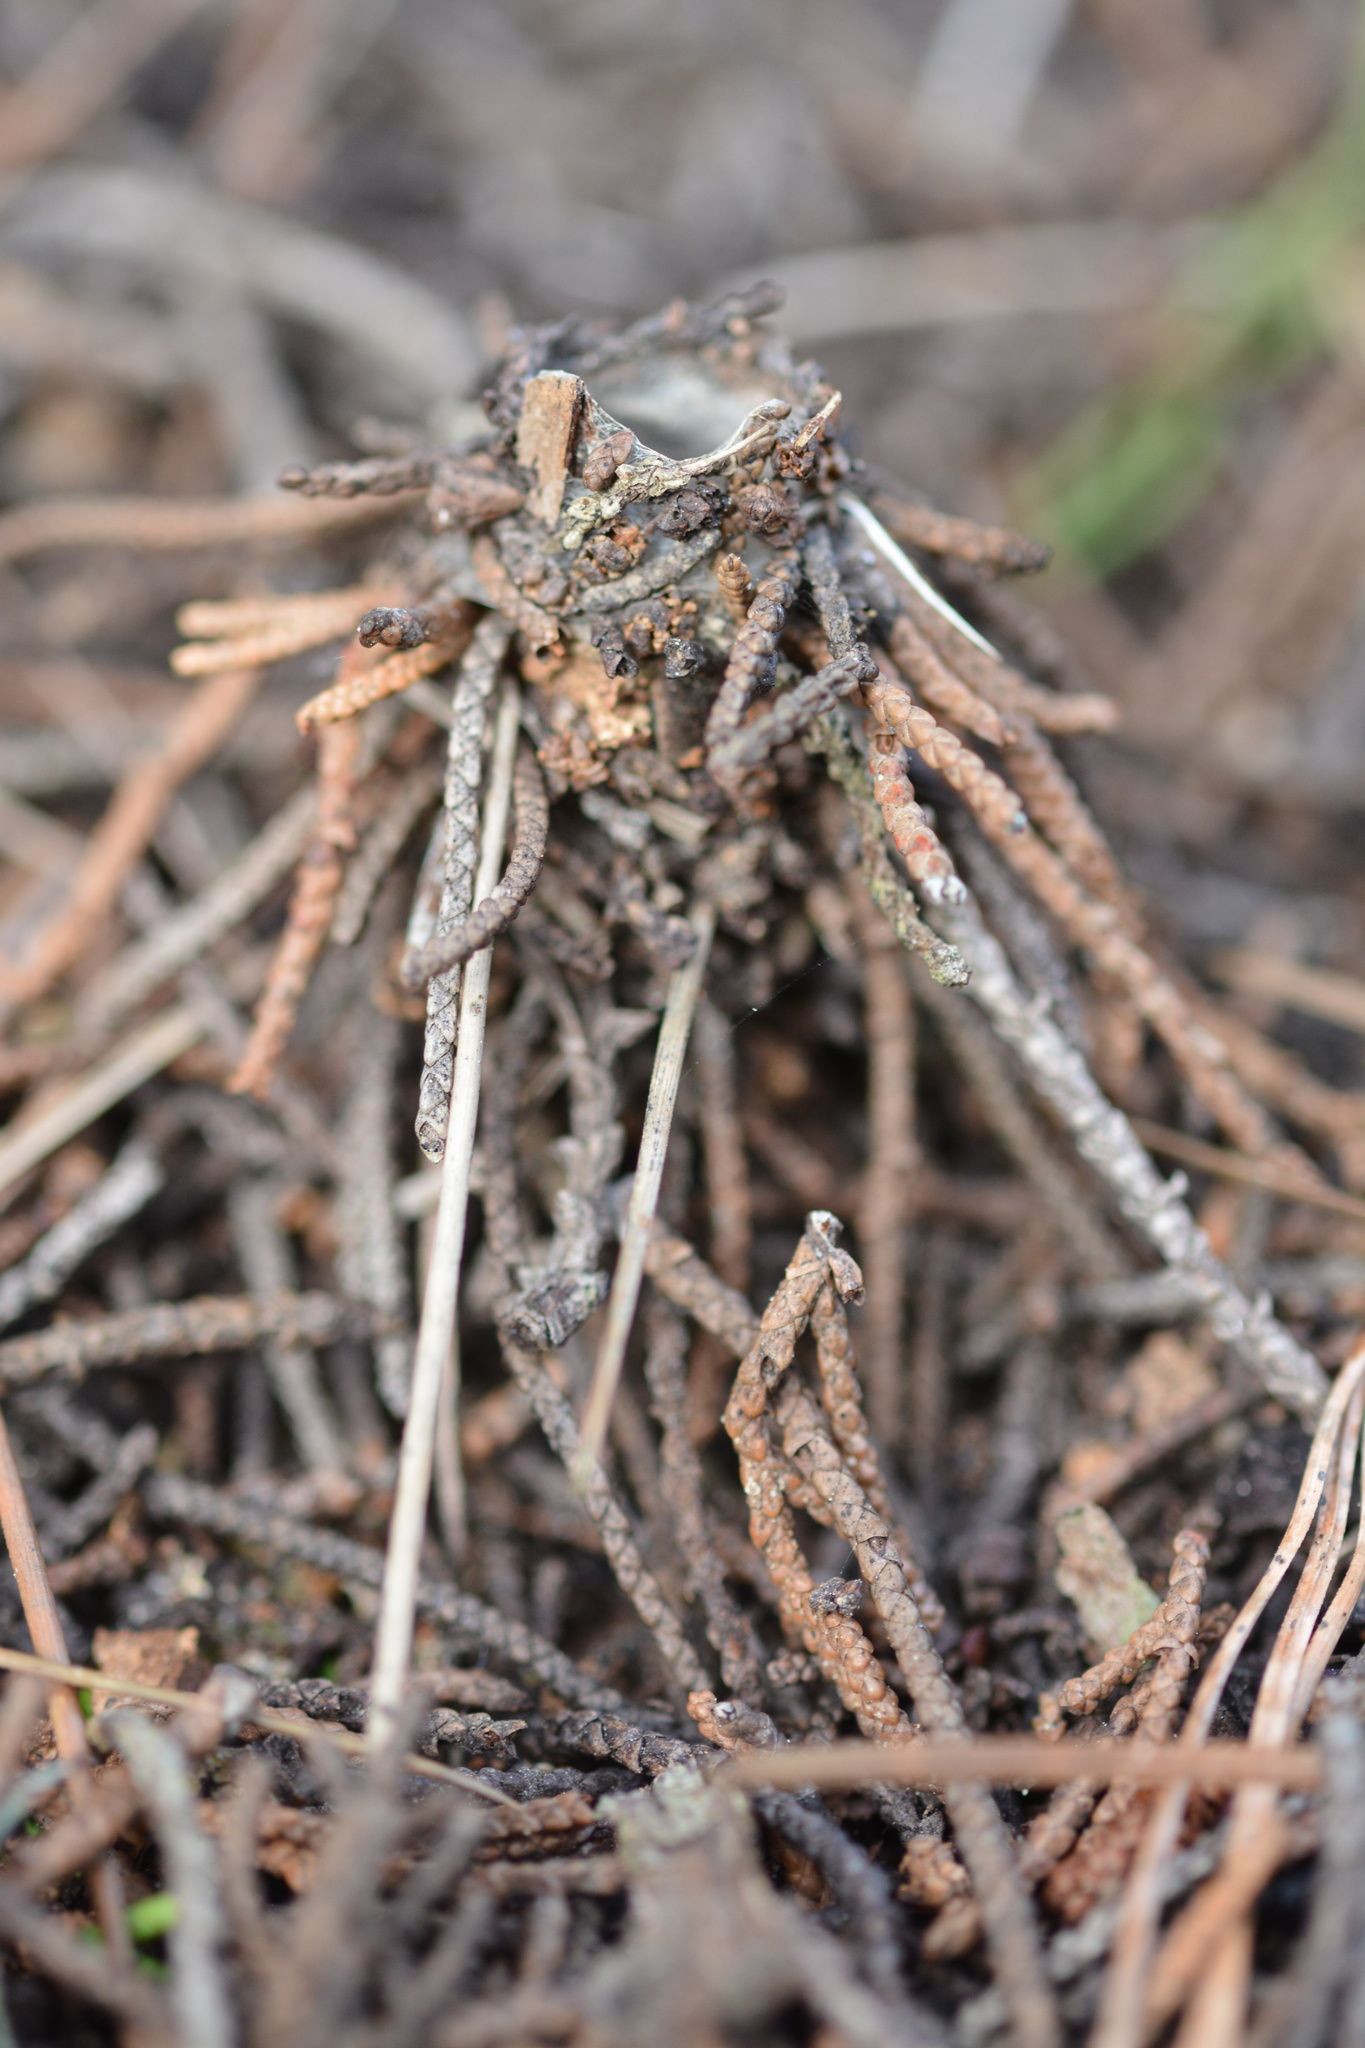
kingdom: Animalia
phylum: Arthropoda
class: Arachnida
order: Araneae
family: Antrodiaetidae
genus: Atypoides
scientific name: Atypoides riversi
